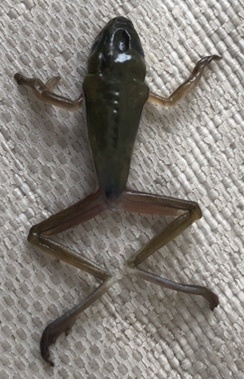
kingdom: Animalia
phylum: Chordata
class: Amphibia
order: Anura
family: Hylidae
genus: Dryophytes
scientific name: Dryophytes cinereus
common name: Green treefrog
